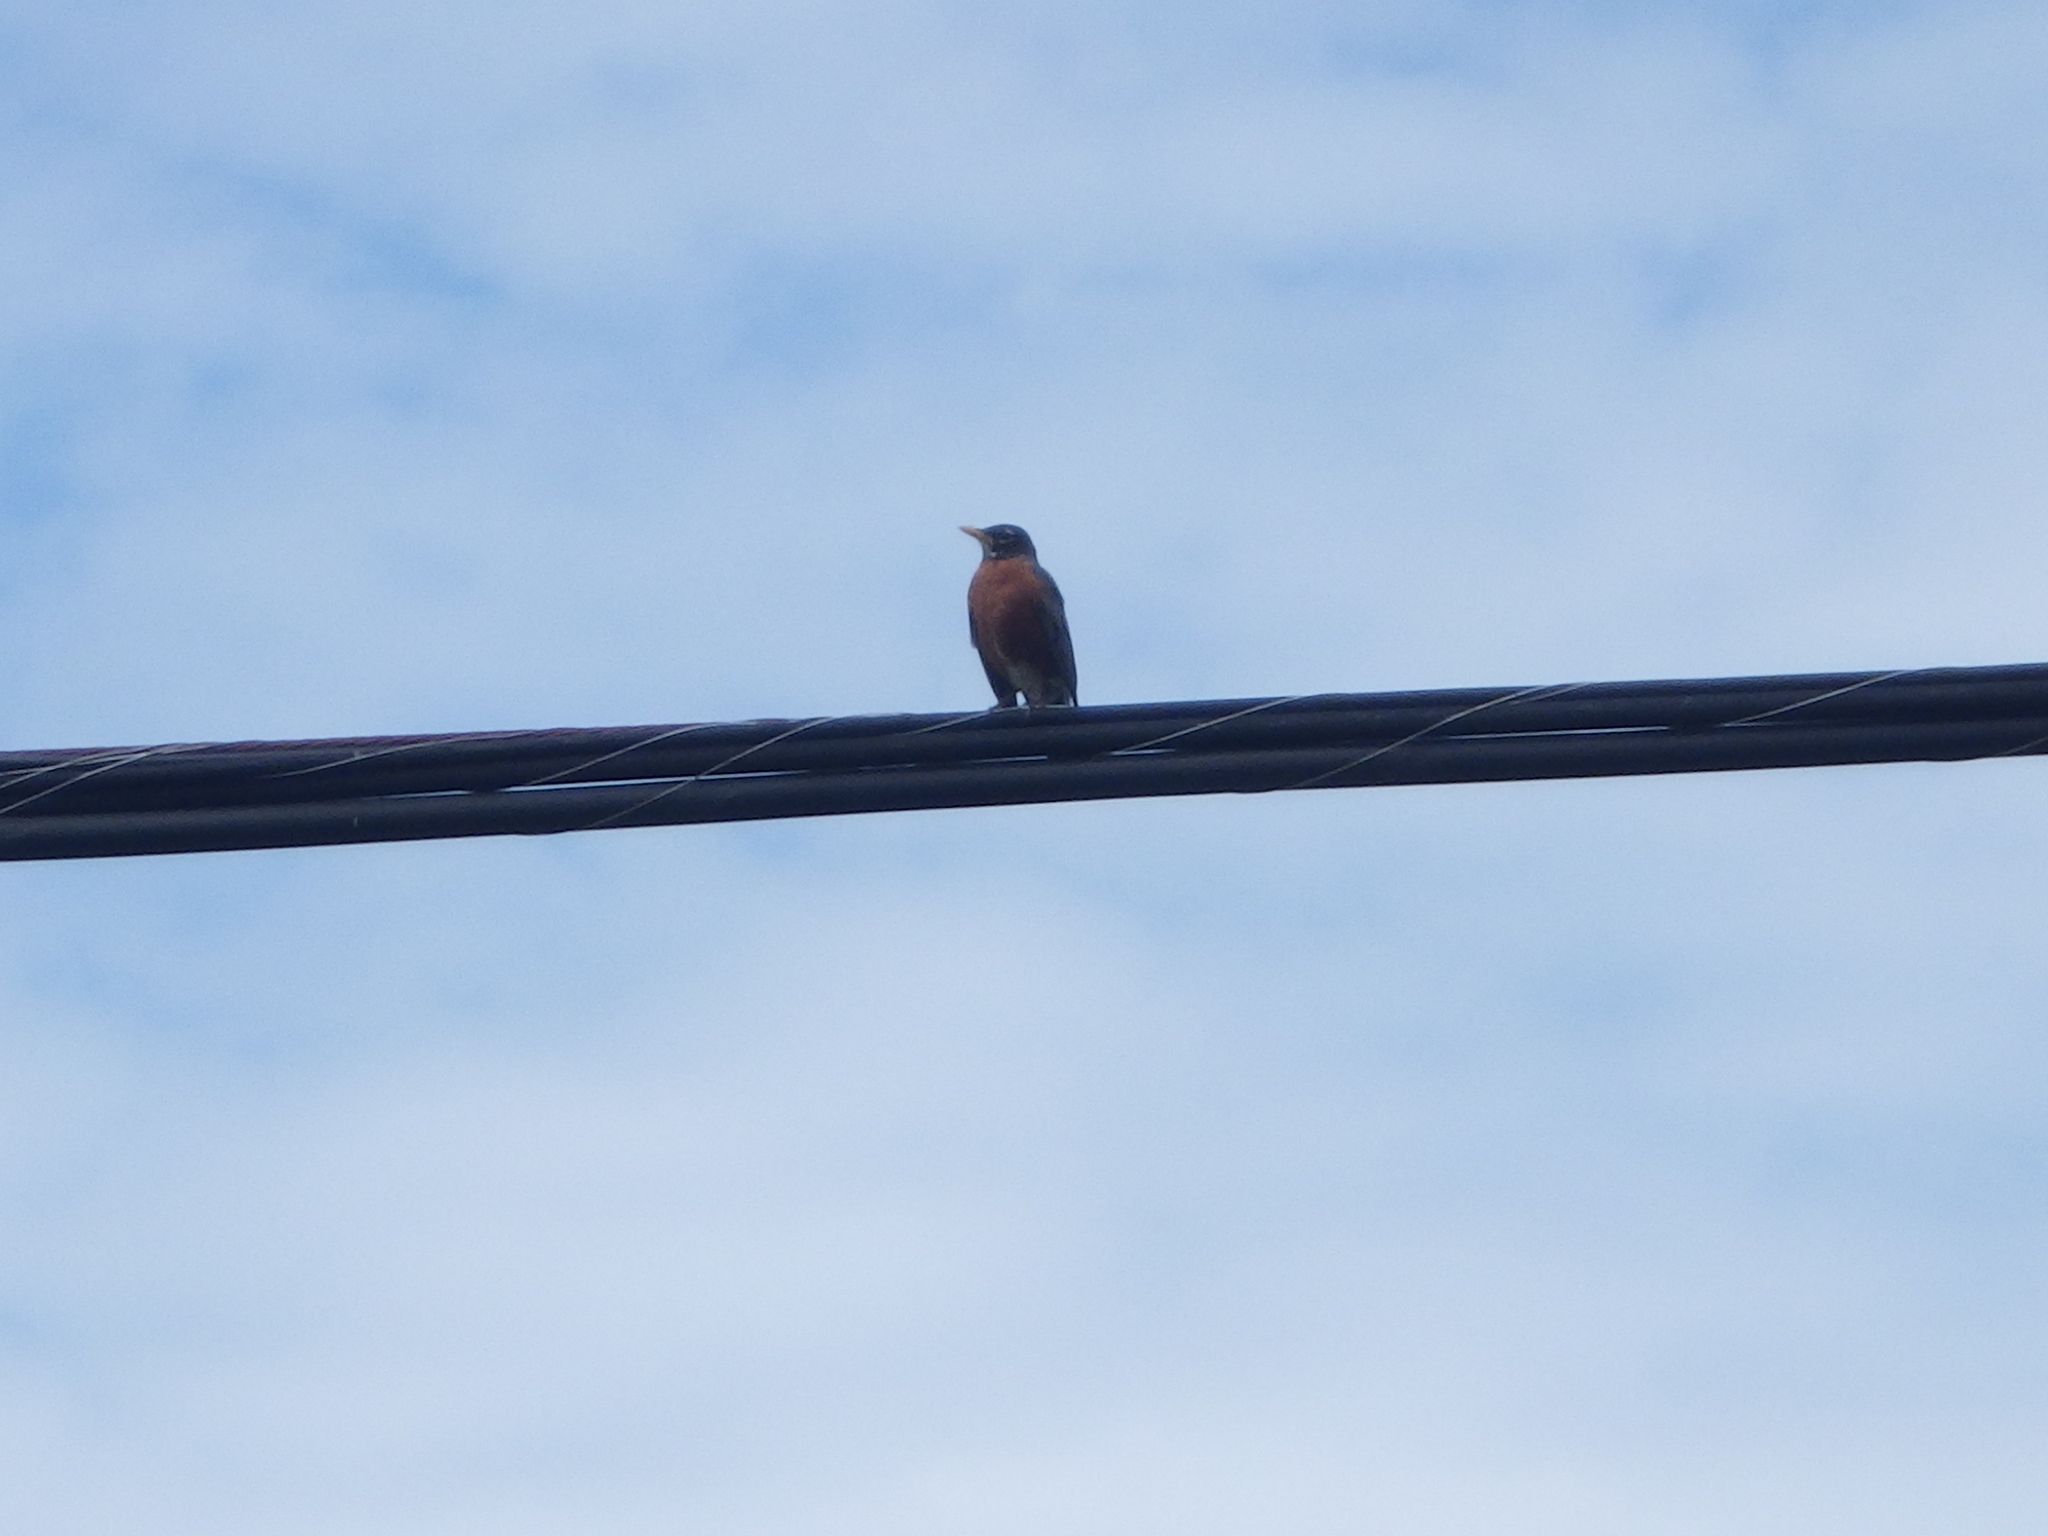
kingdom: Animalia
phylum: Chordata
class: Aves
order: Passeriformes
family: Turdidae
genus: Turdus
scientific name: Turdus migratorius
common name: American robin
